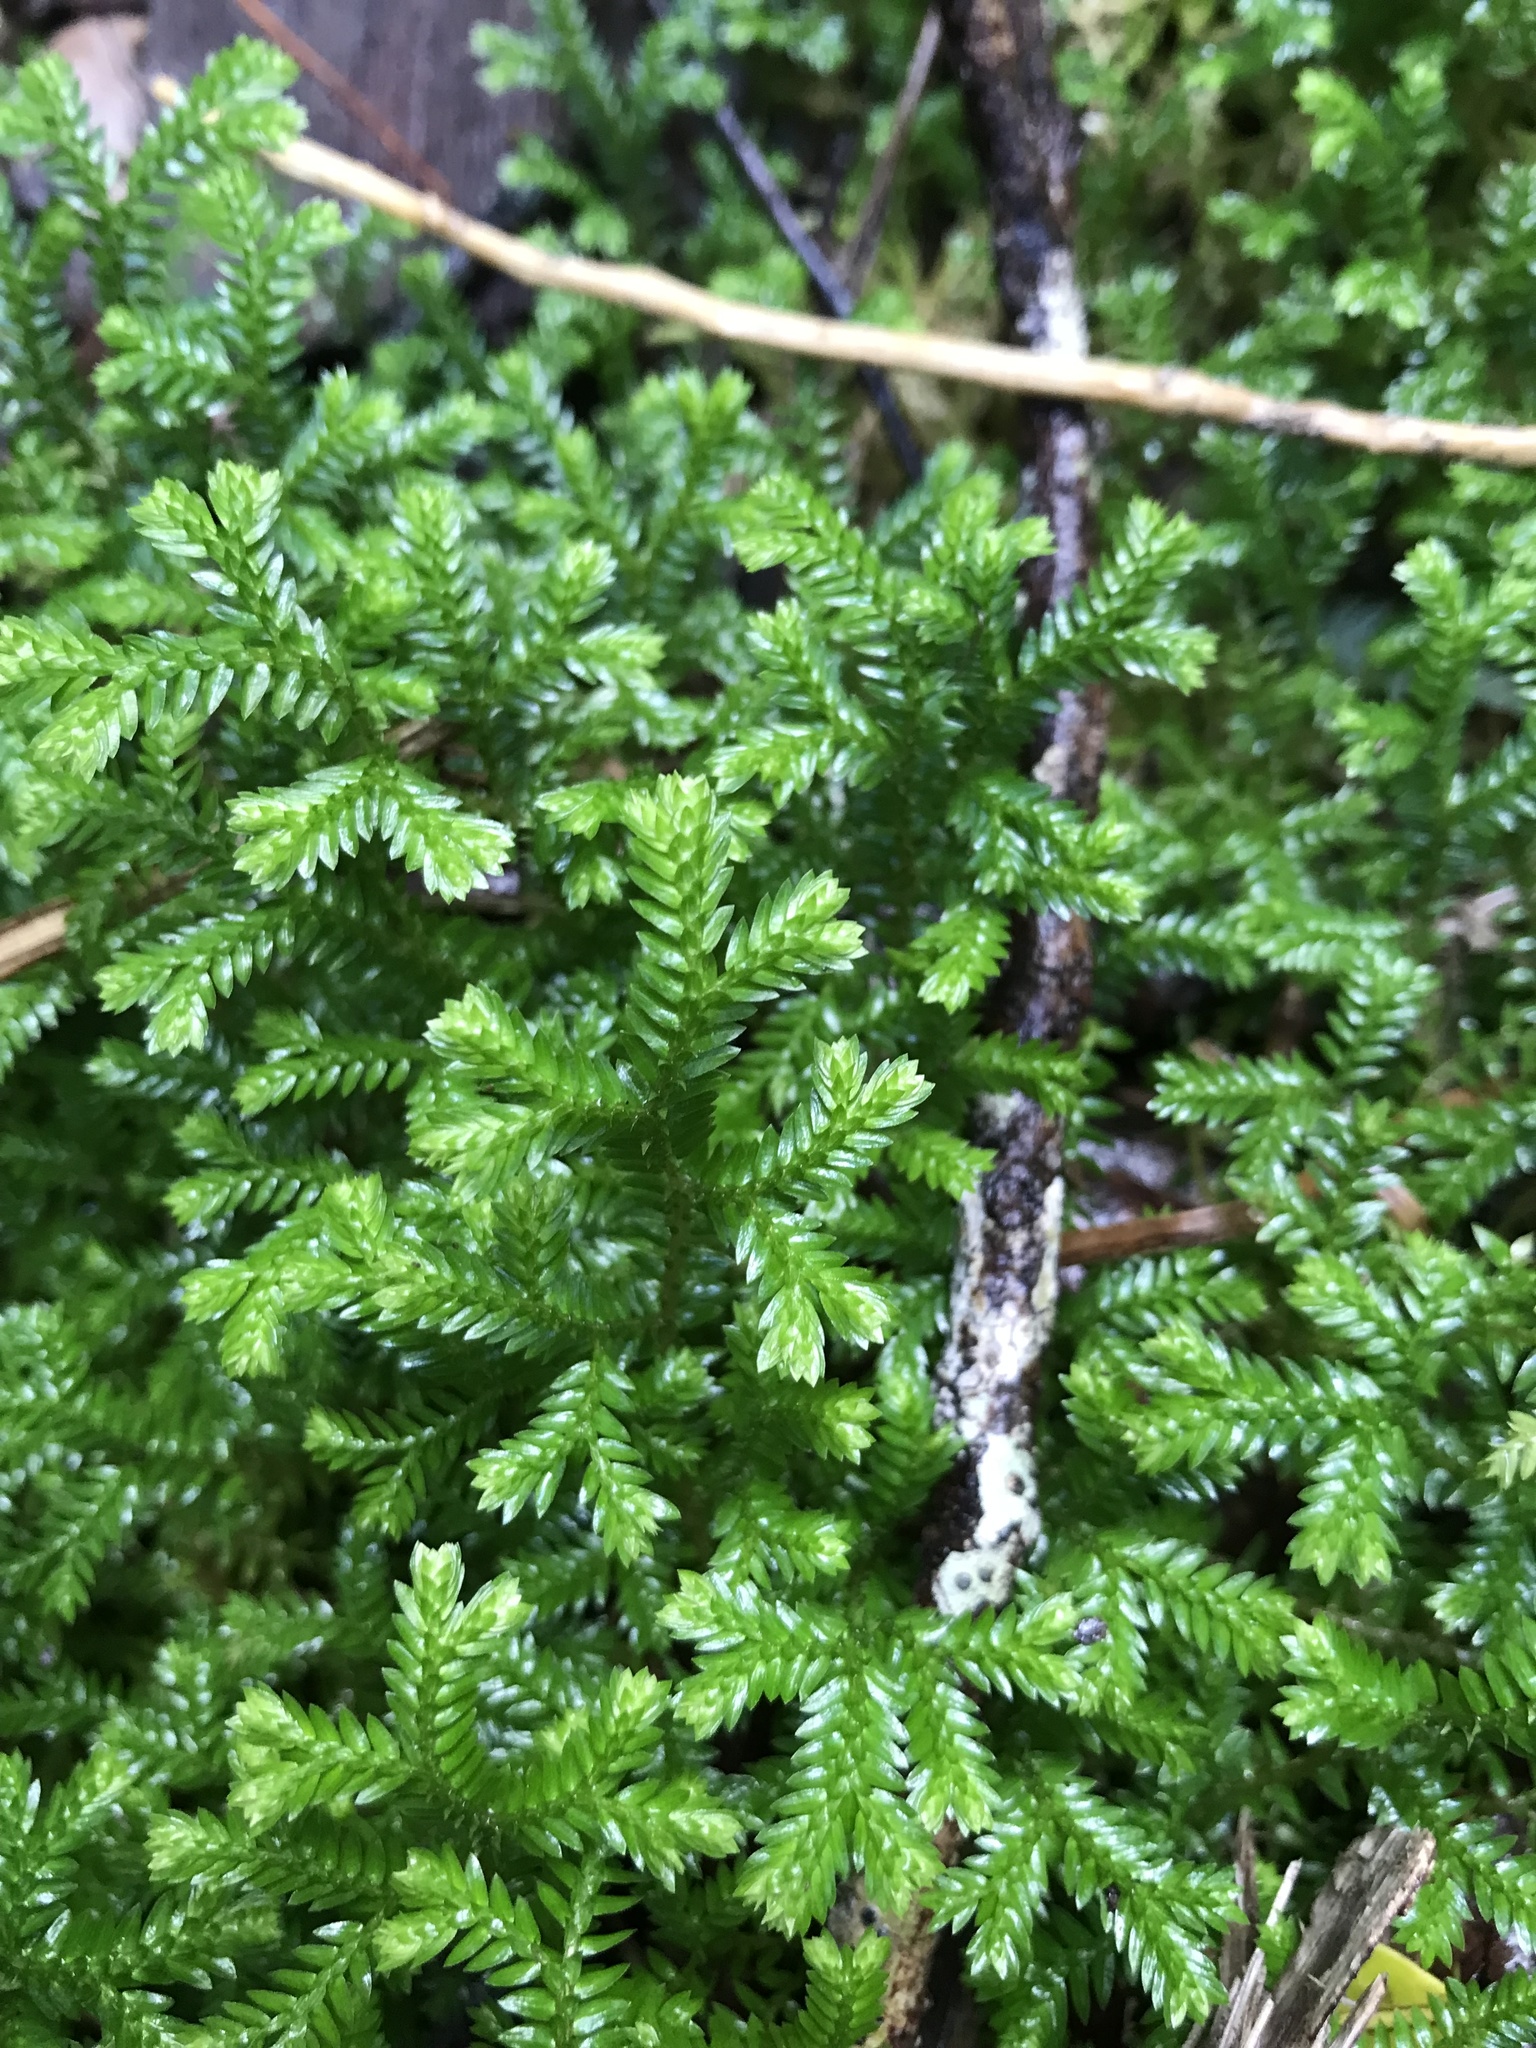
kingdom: Plantae
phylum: Tracheophyta
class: Lycopodiopsida
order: Selaginellales
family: Selaginellaceae
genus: Selaginella
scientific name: Selaginella kraussiana
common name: Krauss' spikemoss
